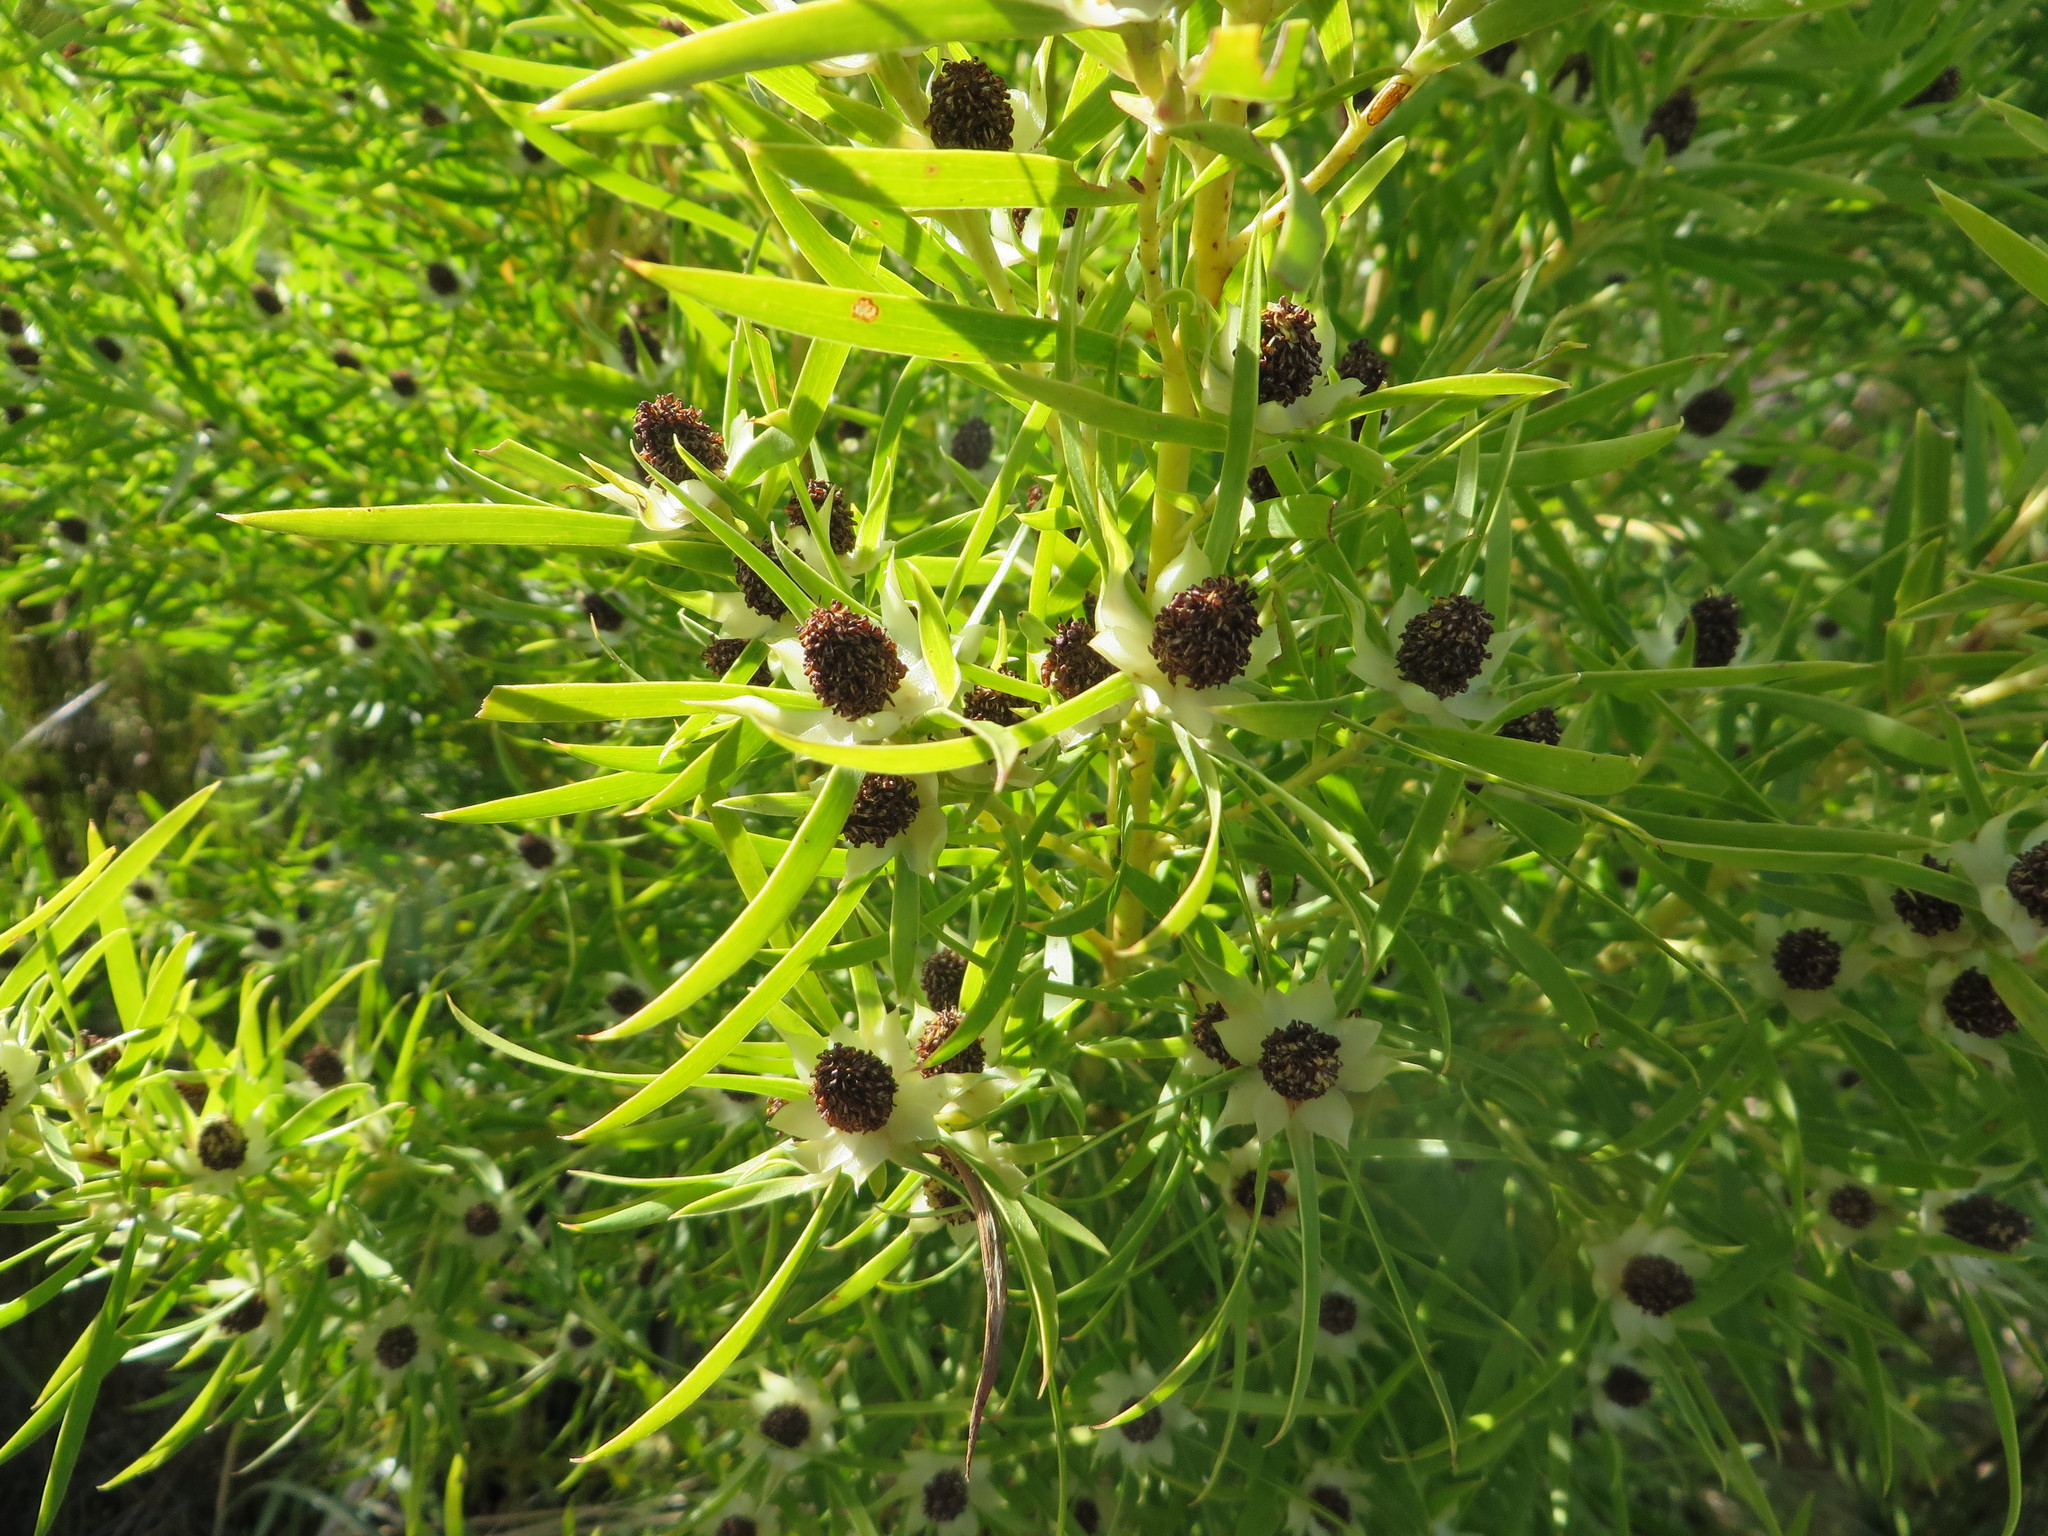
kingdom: Plantae
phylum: Tracheophyta
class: Magnoliopsida
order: Proteales
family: Proteaceae
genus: Leucadendron
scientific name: Leucadendron salicifolium
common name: Common stream conebush
